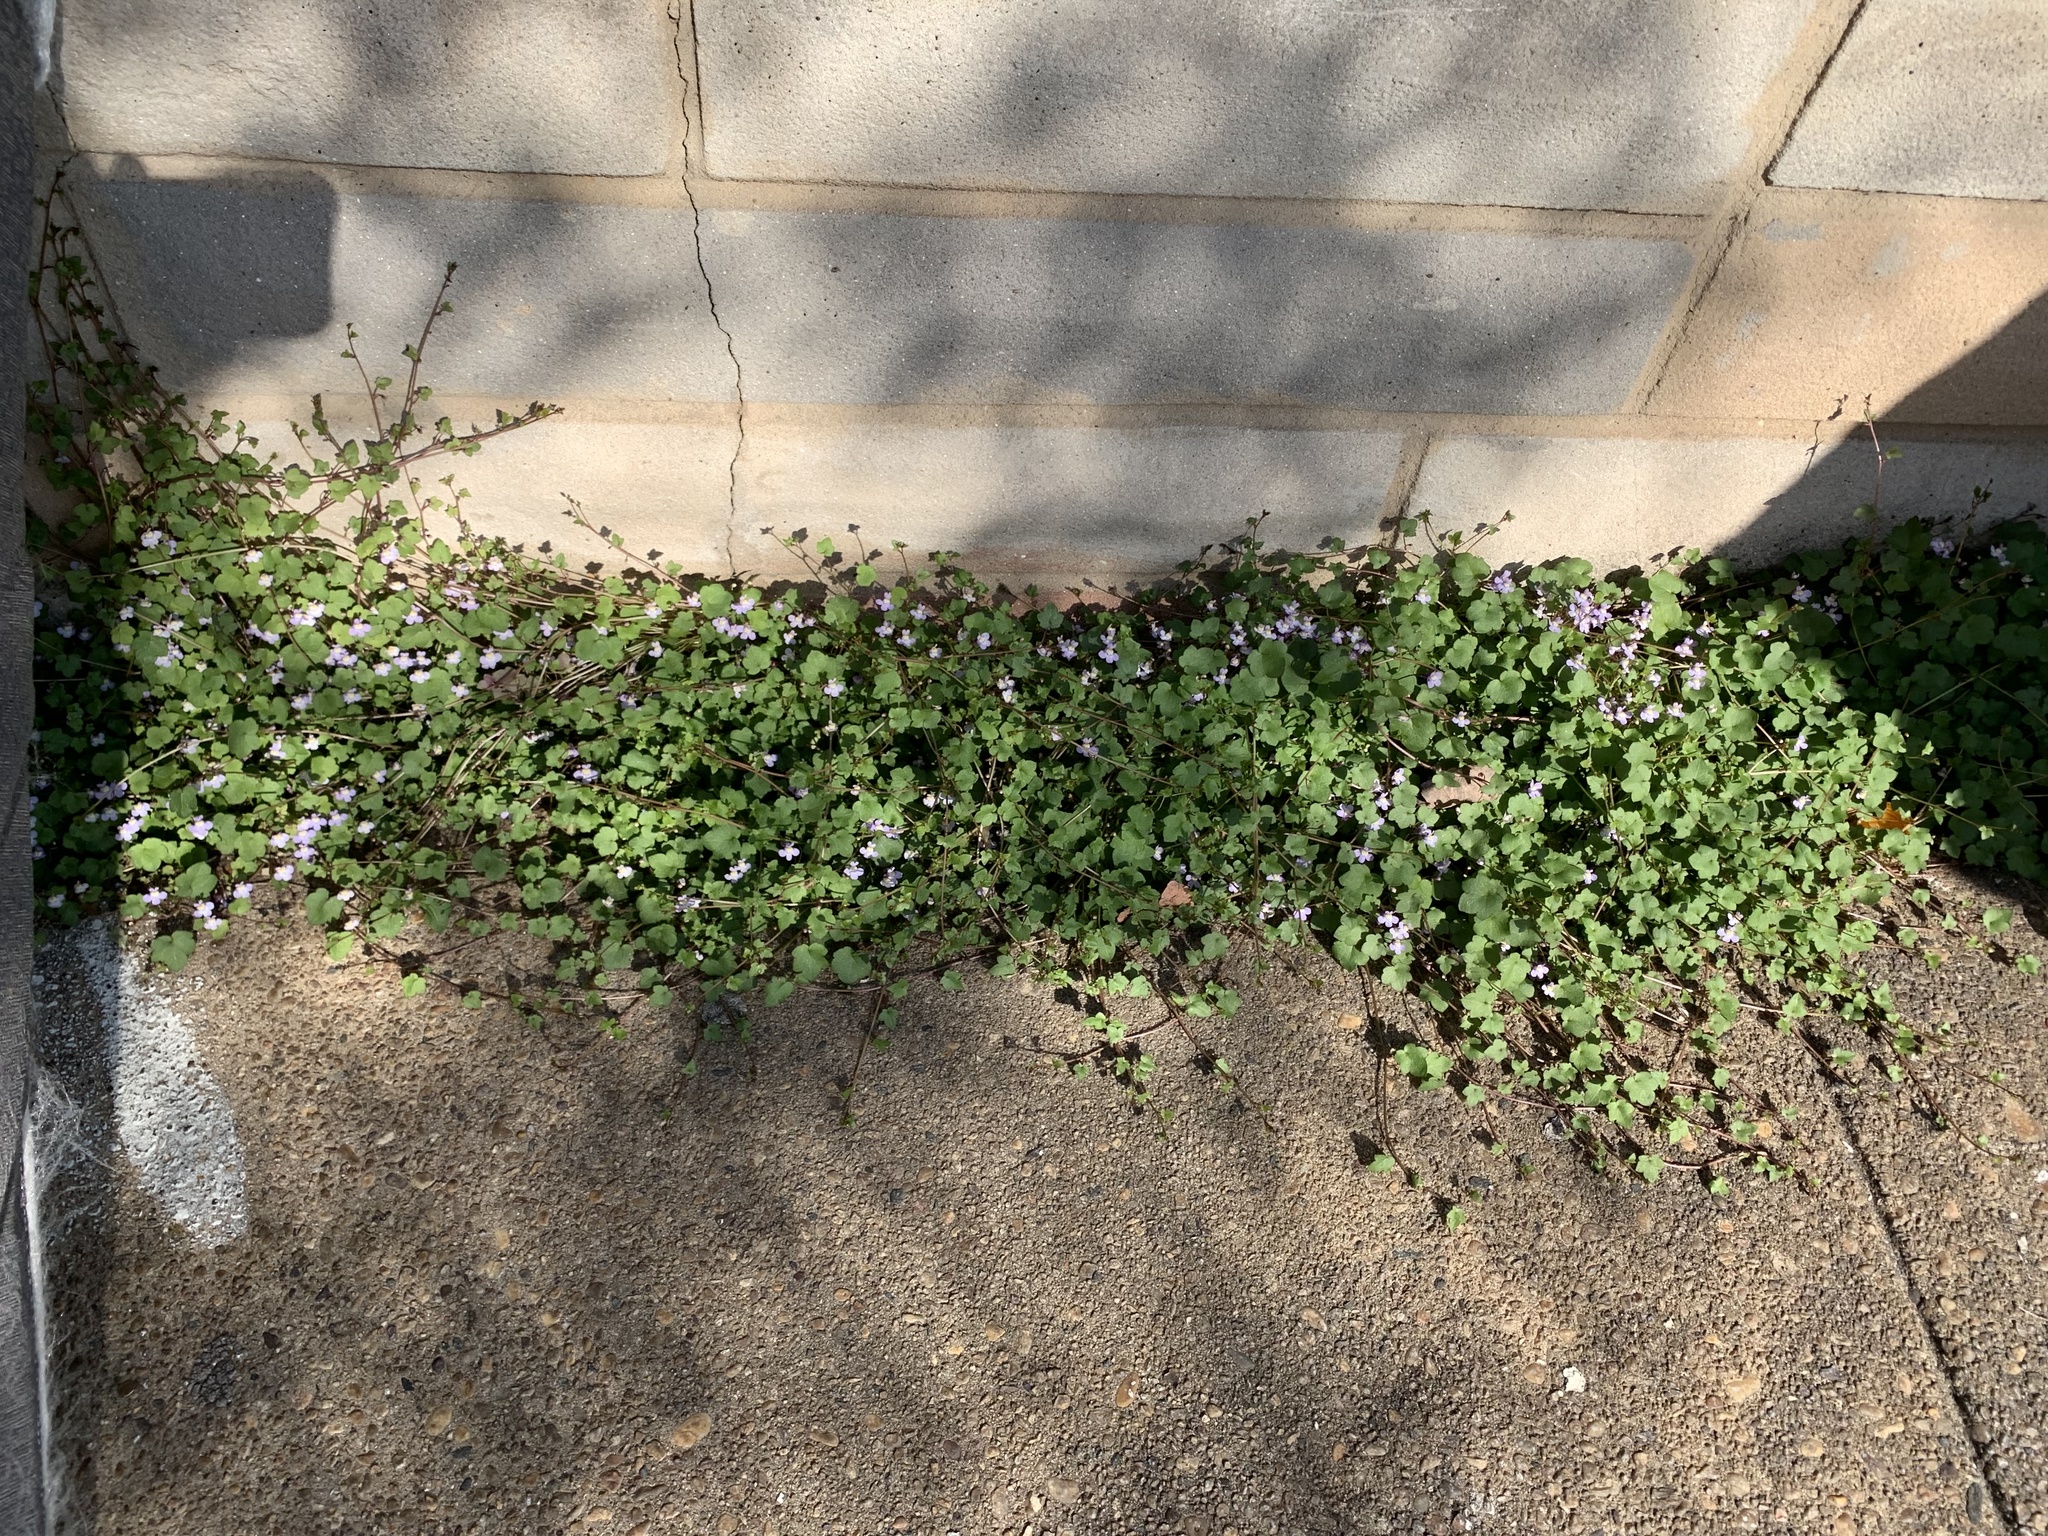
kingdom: Plantae
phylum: Tracheophyta
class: Magnoliopsida
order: Lamiales
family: Plantaginaceae
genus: Cymbalaria
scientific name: Cymbalaria muralis
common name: Ivy-leaved toadflax
